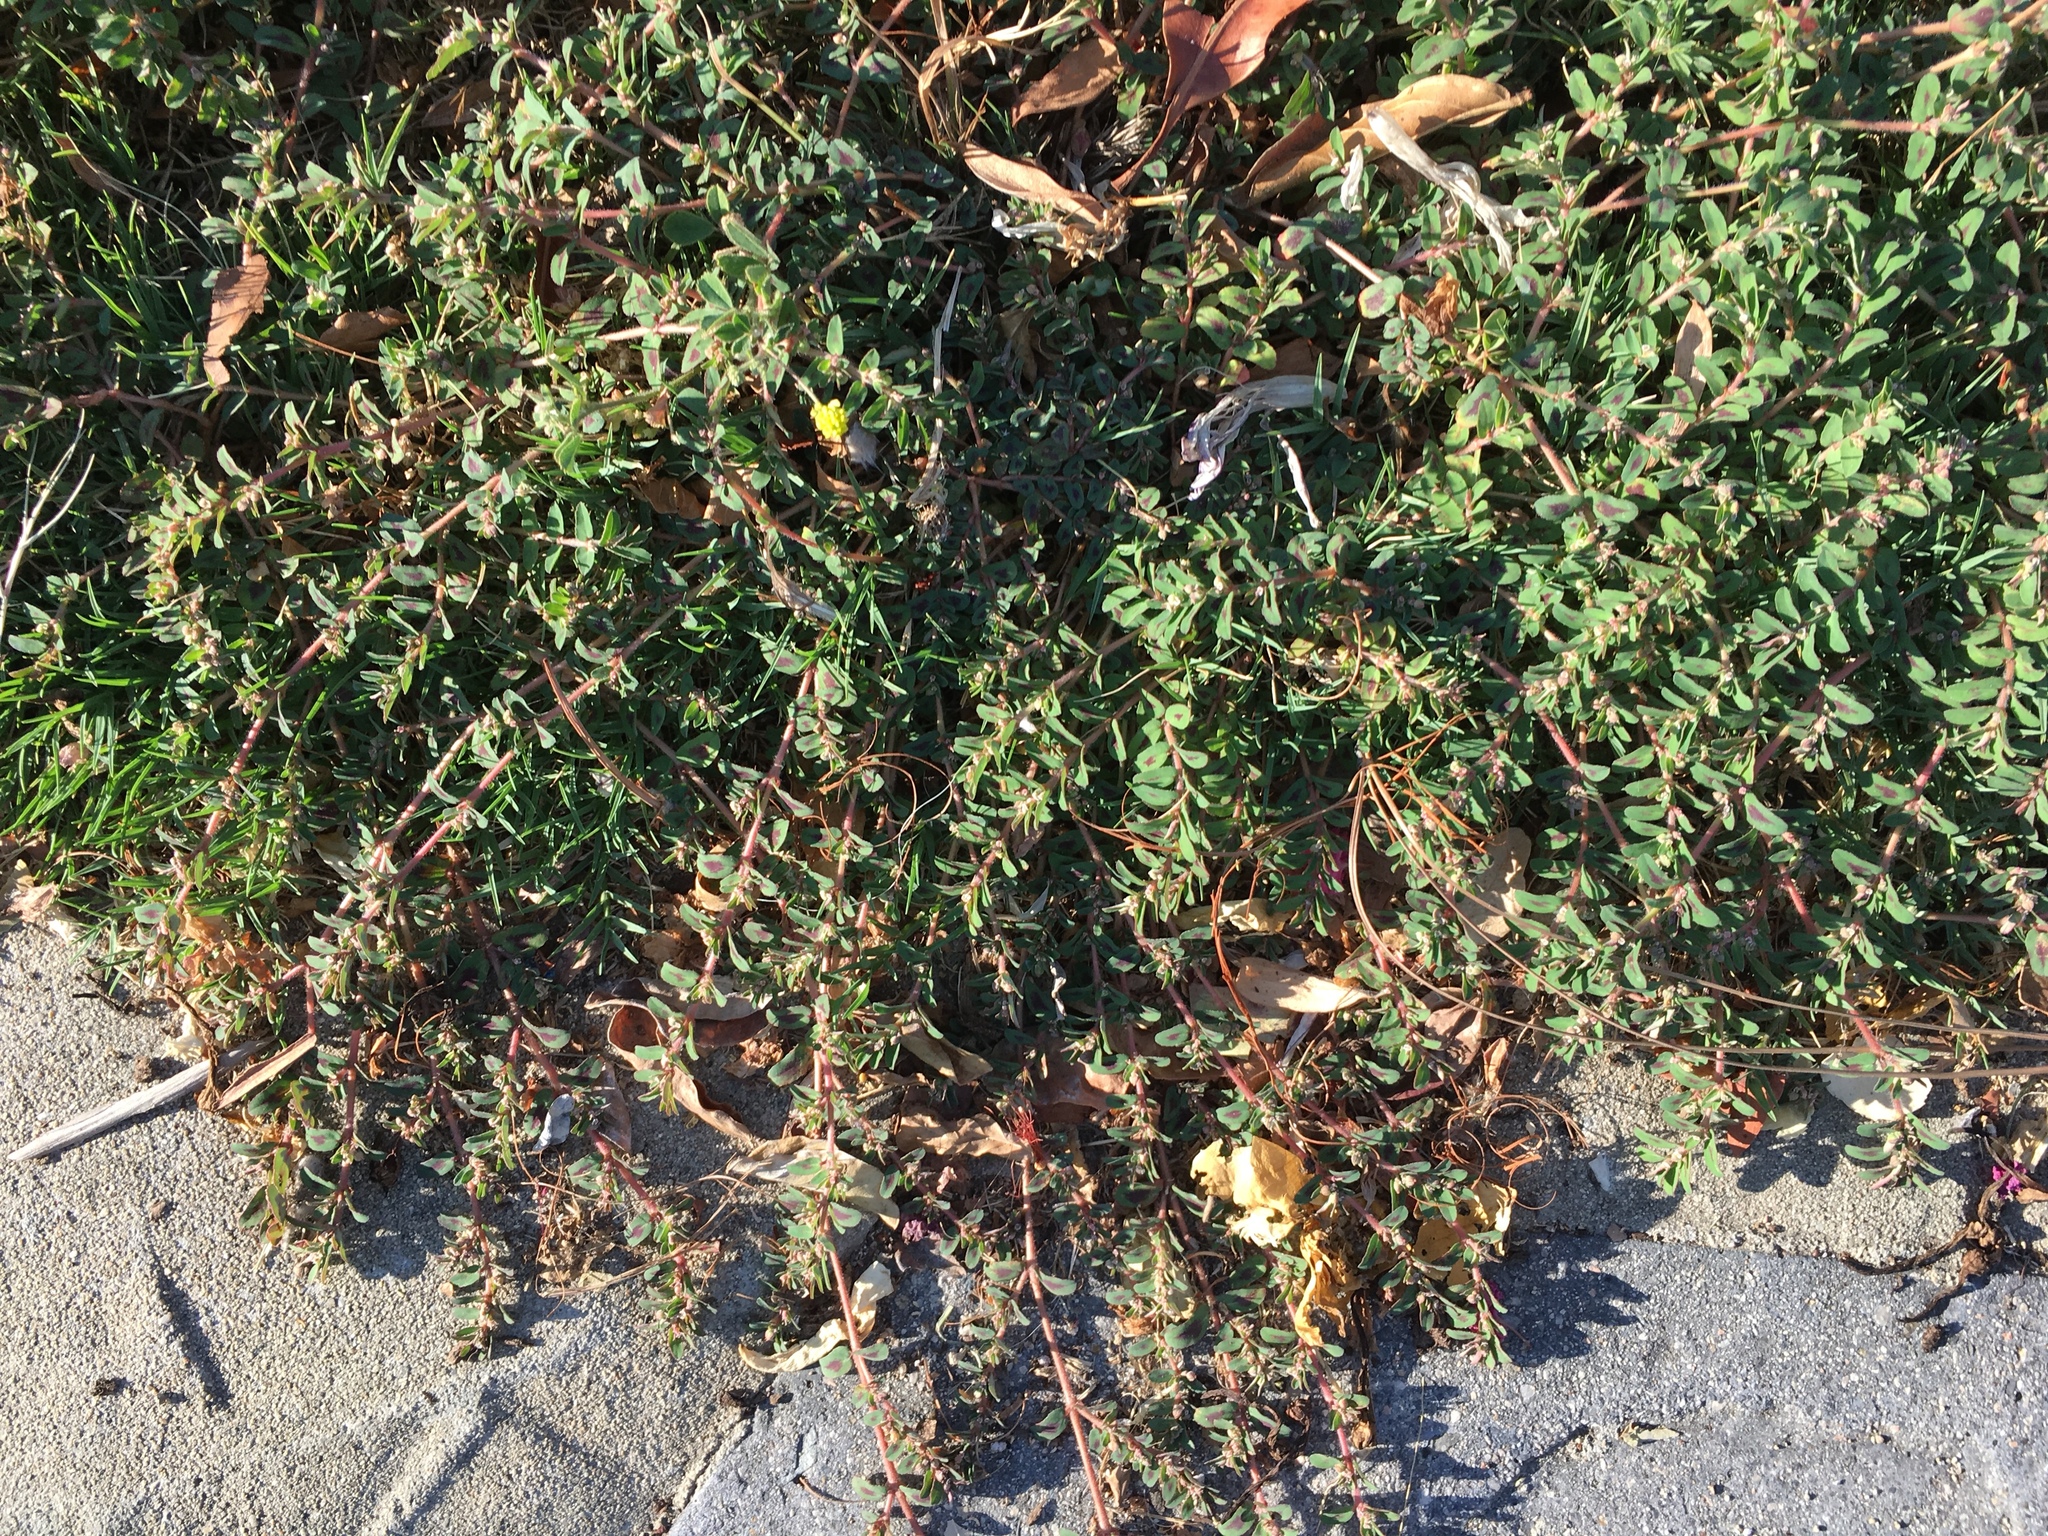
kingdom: Plantae
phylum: Tracheophyta
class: Magnoliopsida
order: Malpighiales
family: Euphorbiaceae
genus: Euphorbia
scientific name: Euphorbia maculata
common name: Spotted spurge
